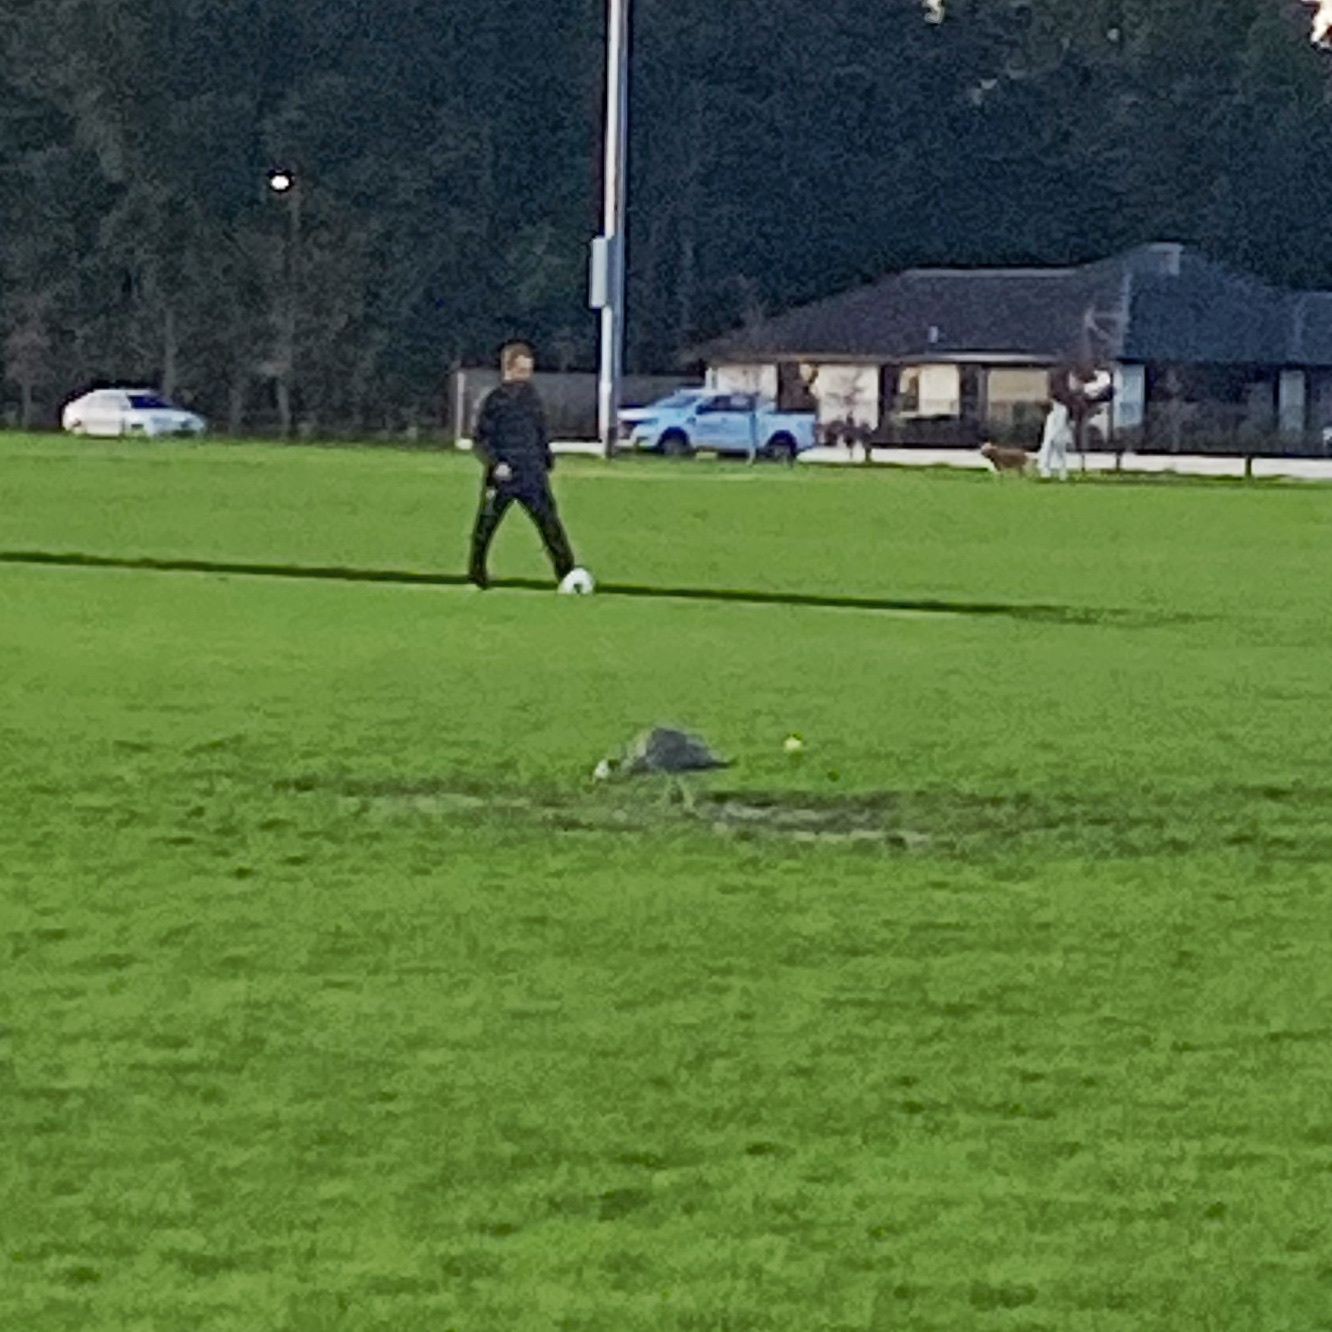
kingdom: Animalia
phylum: Chordata
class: Aves
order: Pelecaniformes
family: Ardeidae
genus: Egretta
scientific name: Egretta novaehollandiae
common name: White-faced heron
